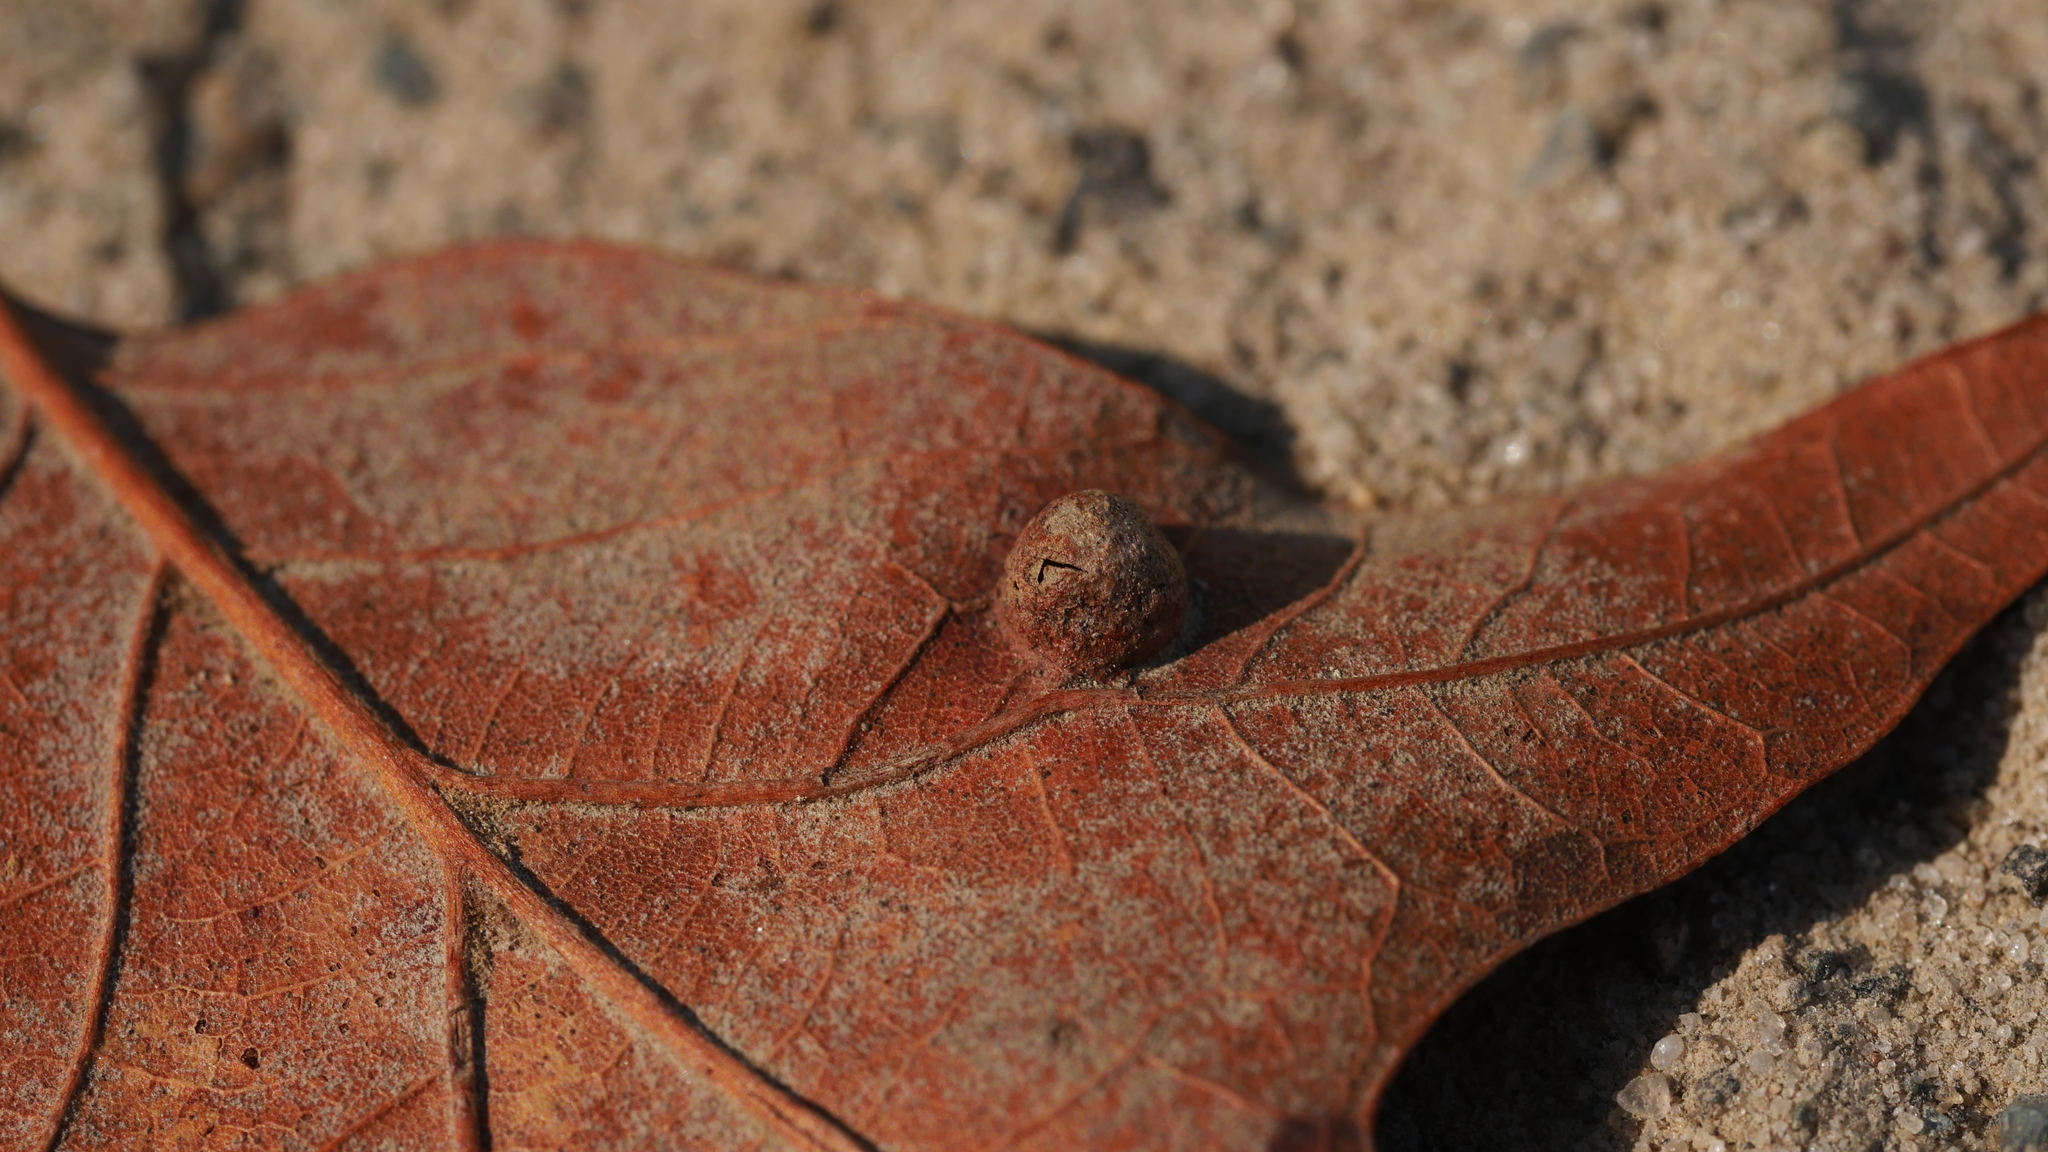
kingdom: Animalia
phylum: Arthropoda
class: Insecta
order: Hymenoptera
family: Cynipidae
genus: Dryocosmus
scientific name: Dryocosmus
